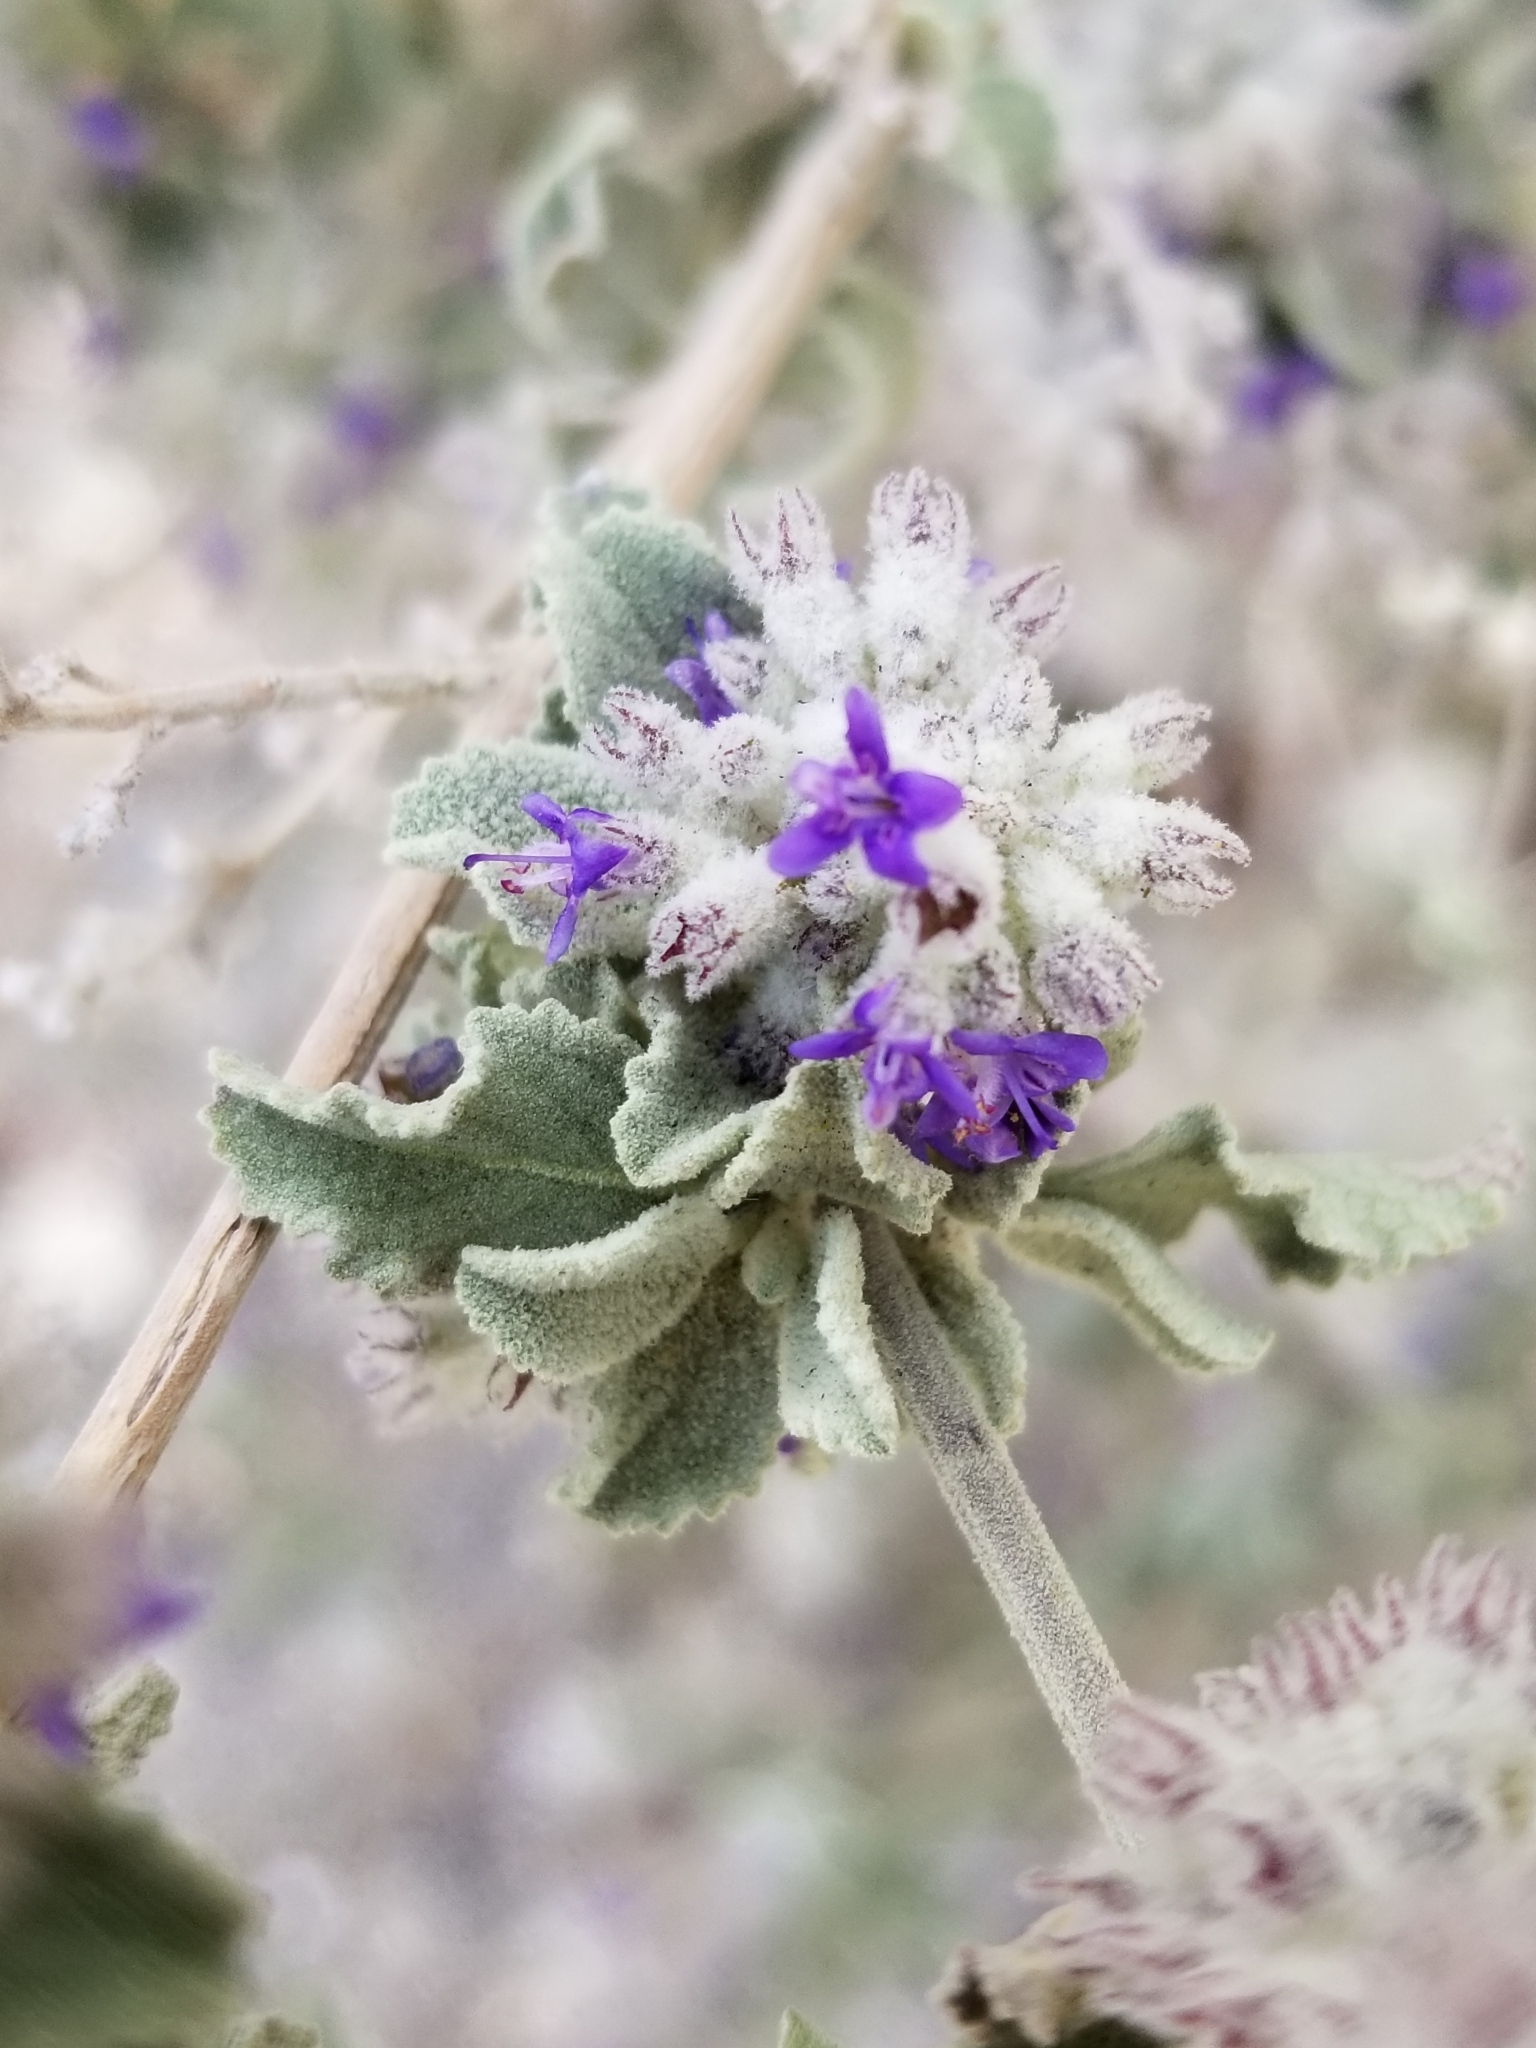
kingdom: Plantae
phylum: Tracheophyta
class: Magnoliopsida
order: Lamiales
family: Lamiaceae
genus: Condea
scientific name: Condea emoryi
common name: Chia
